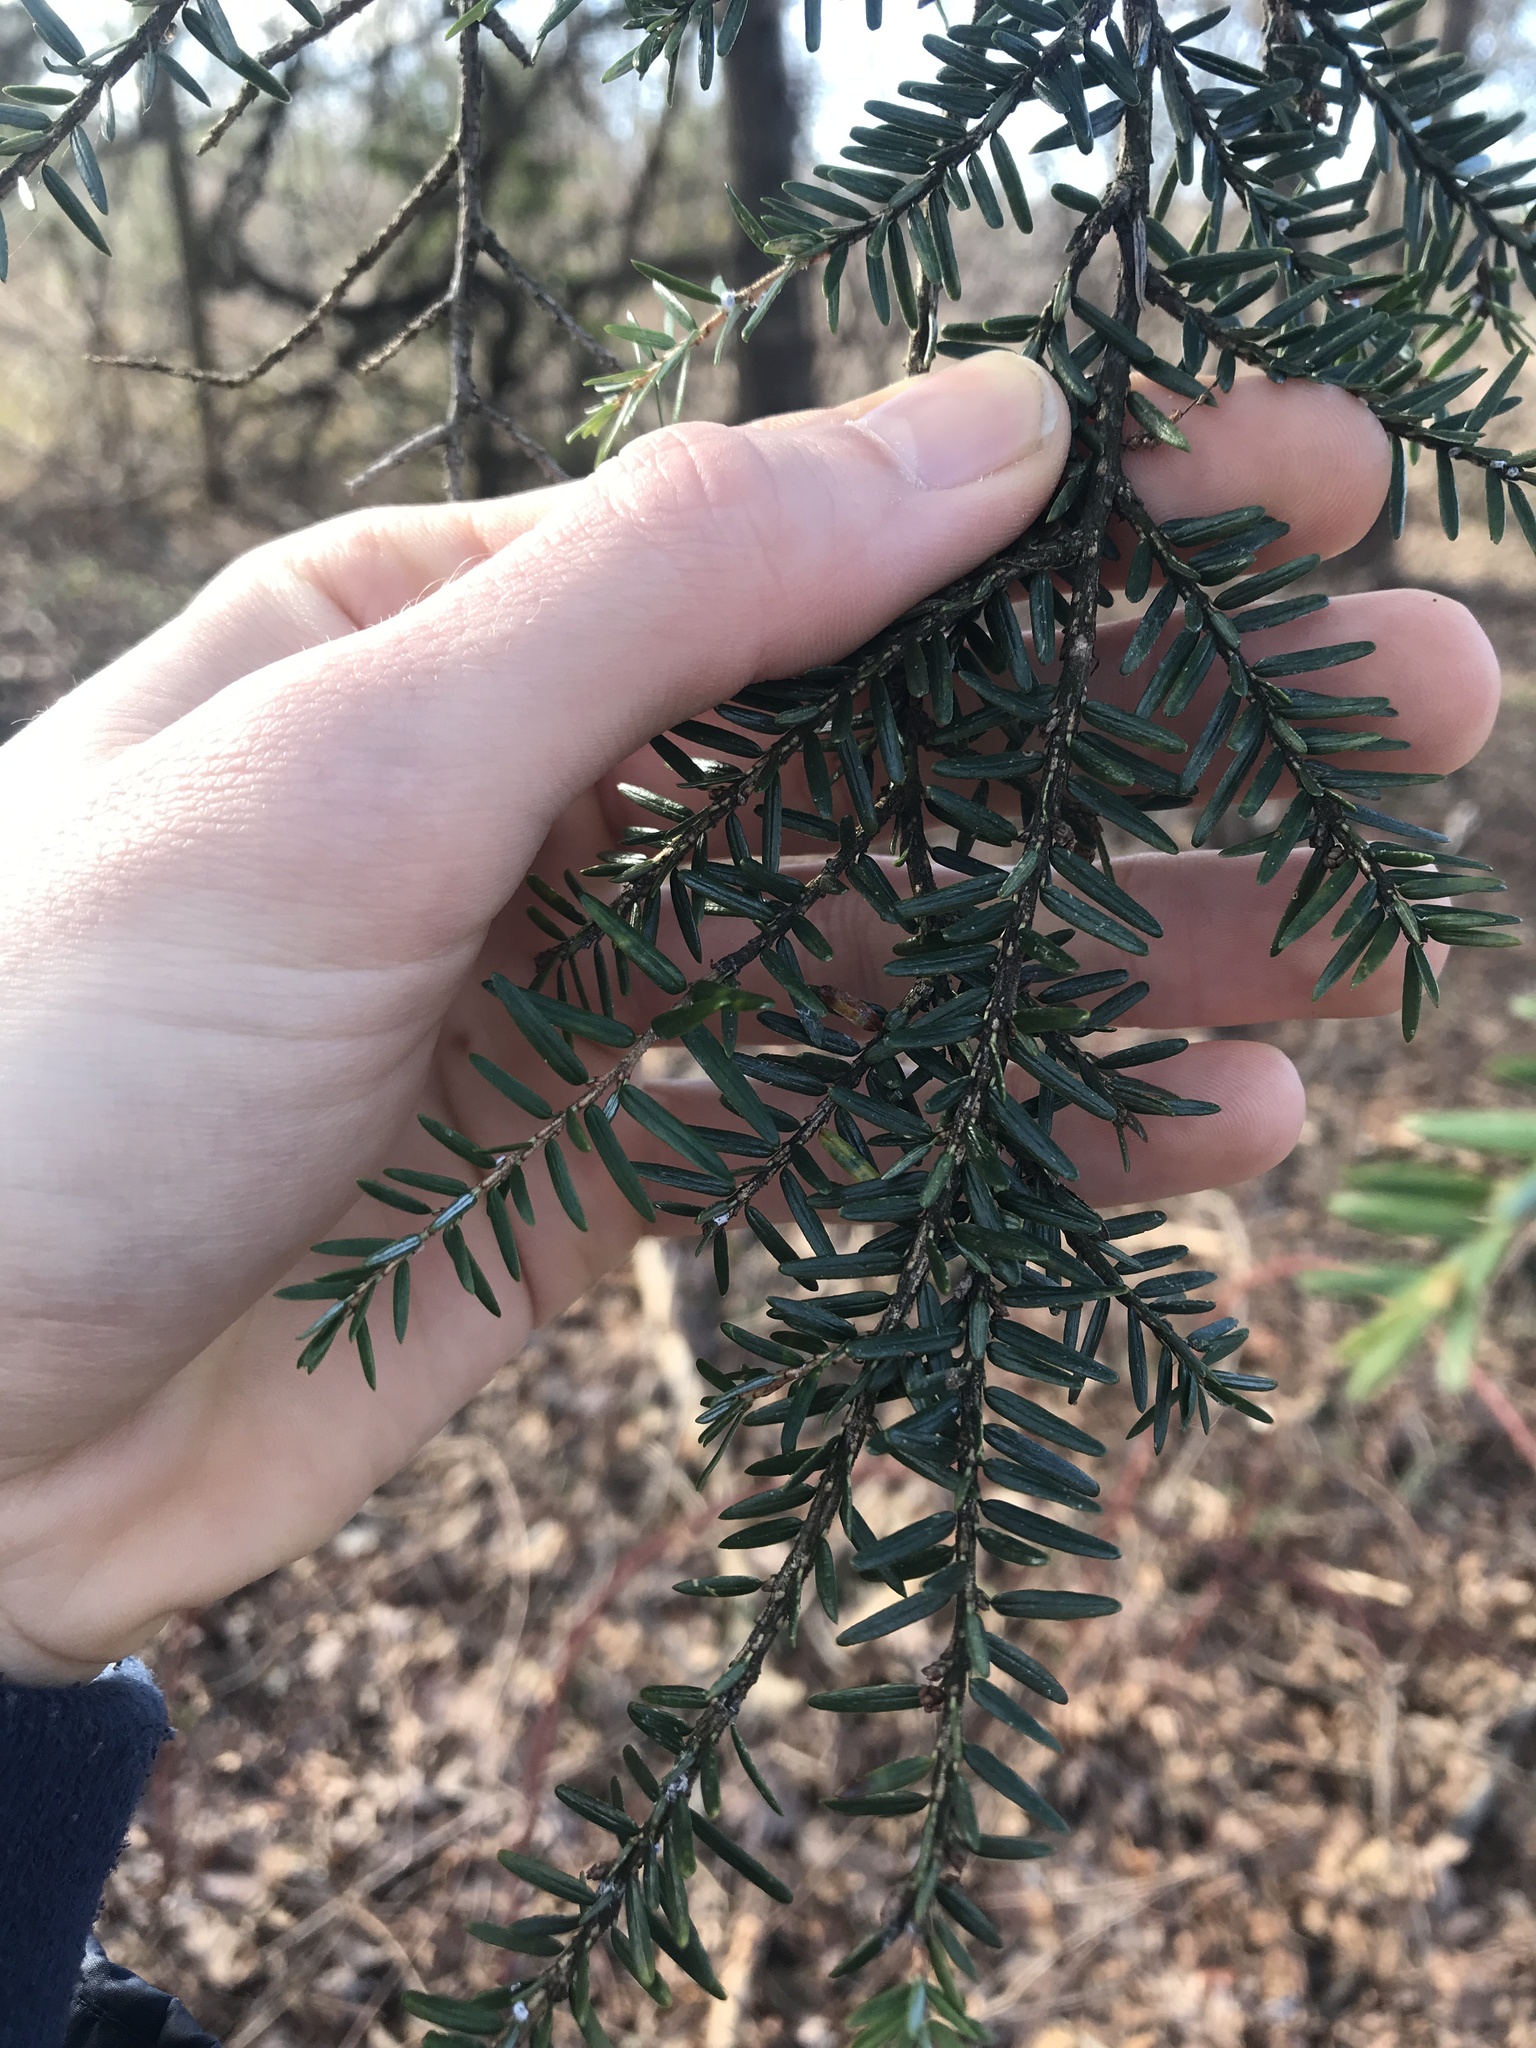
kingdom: Plantae
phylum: Tracheophyta
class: Pinopsida
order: Pinales
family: Pinaceae
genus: Tsuga
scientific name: Tsuga canadensis
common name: Eastern hemlock
